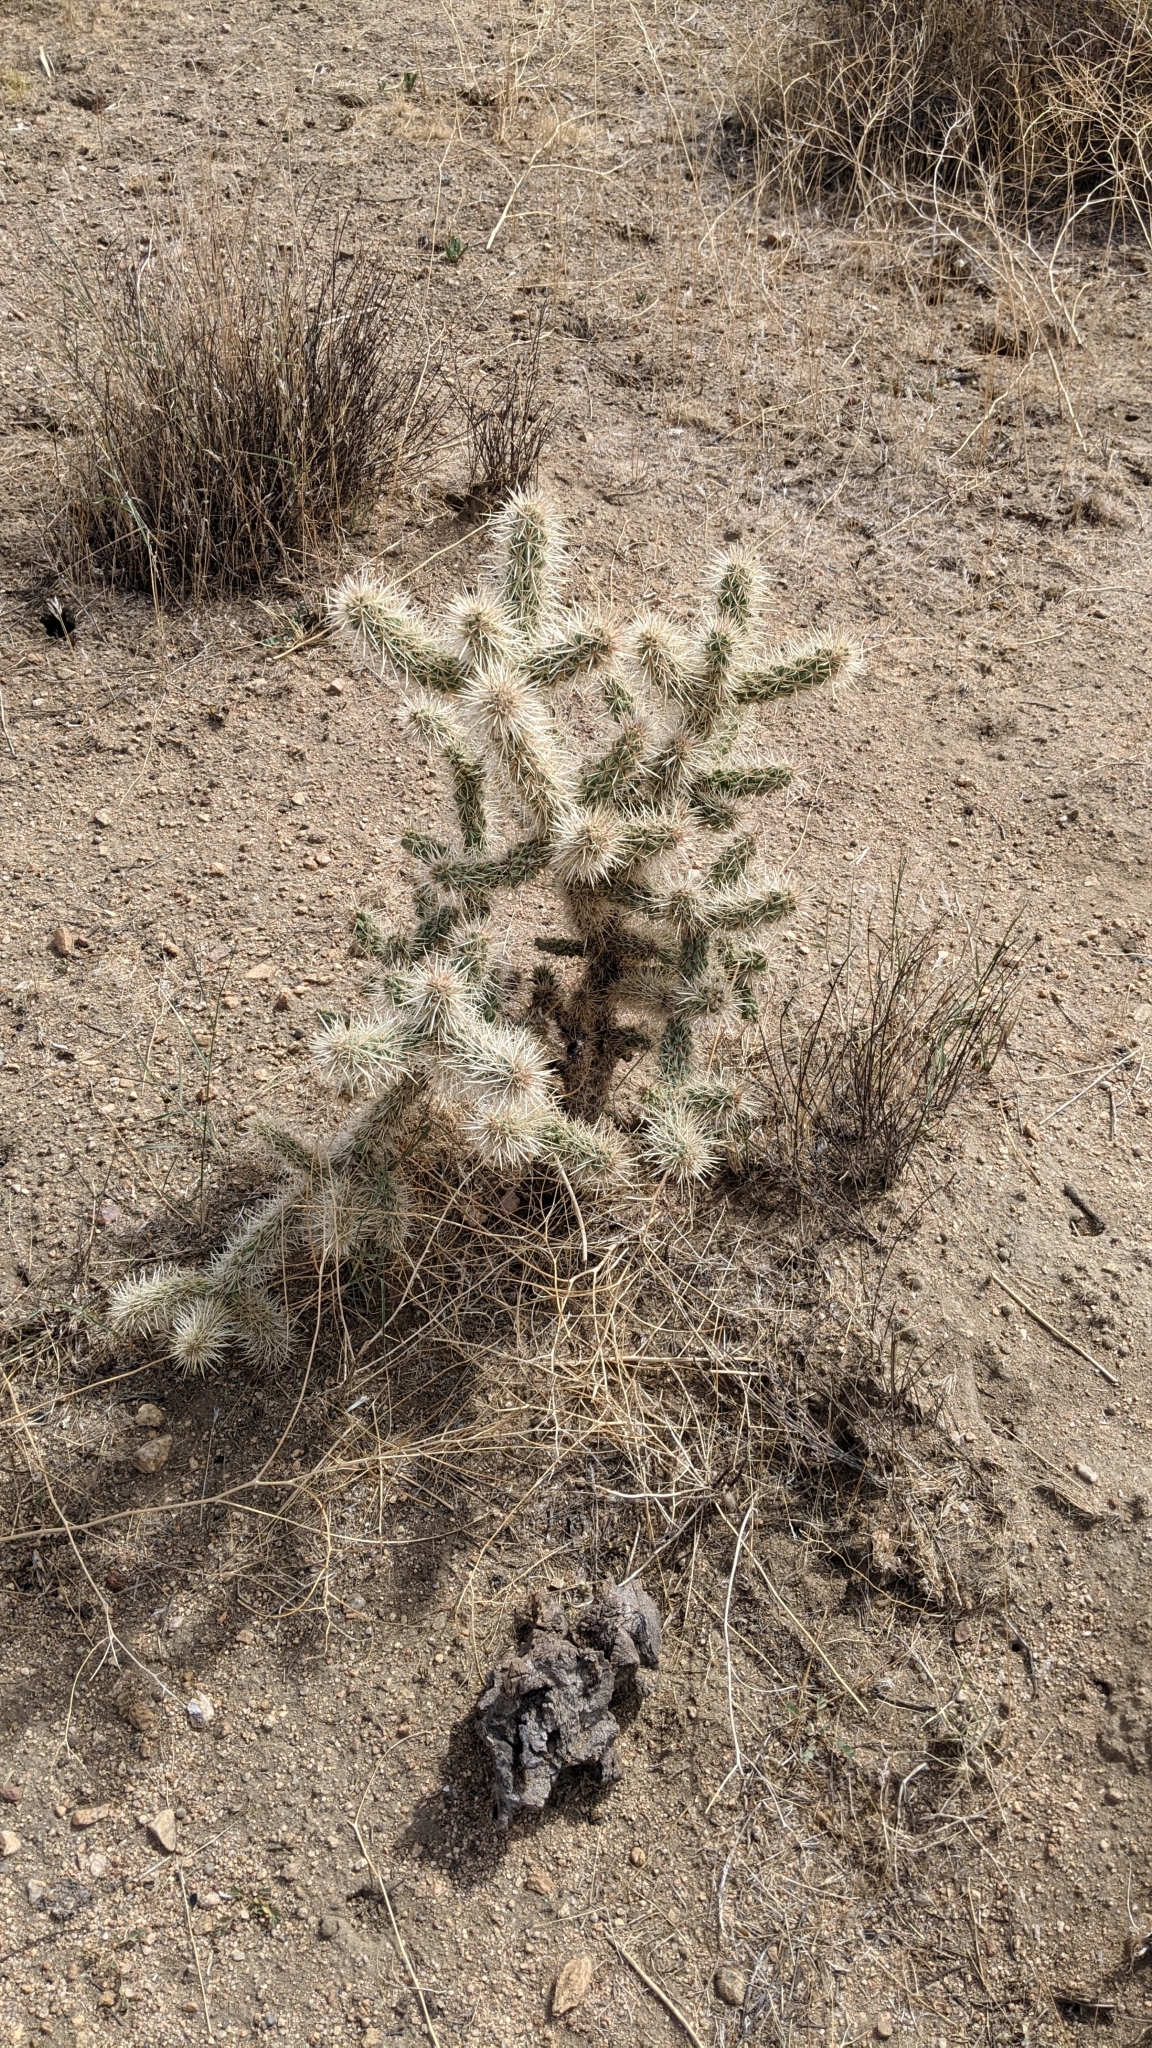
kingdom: Plantae
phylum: Tracheophyta
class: Magnoliopsida
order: Caryophyllales
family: Cactaceae
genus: Cylindropuntia
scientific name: Cylindropuntia echinocarpa
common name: Ground cholla
